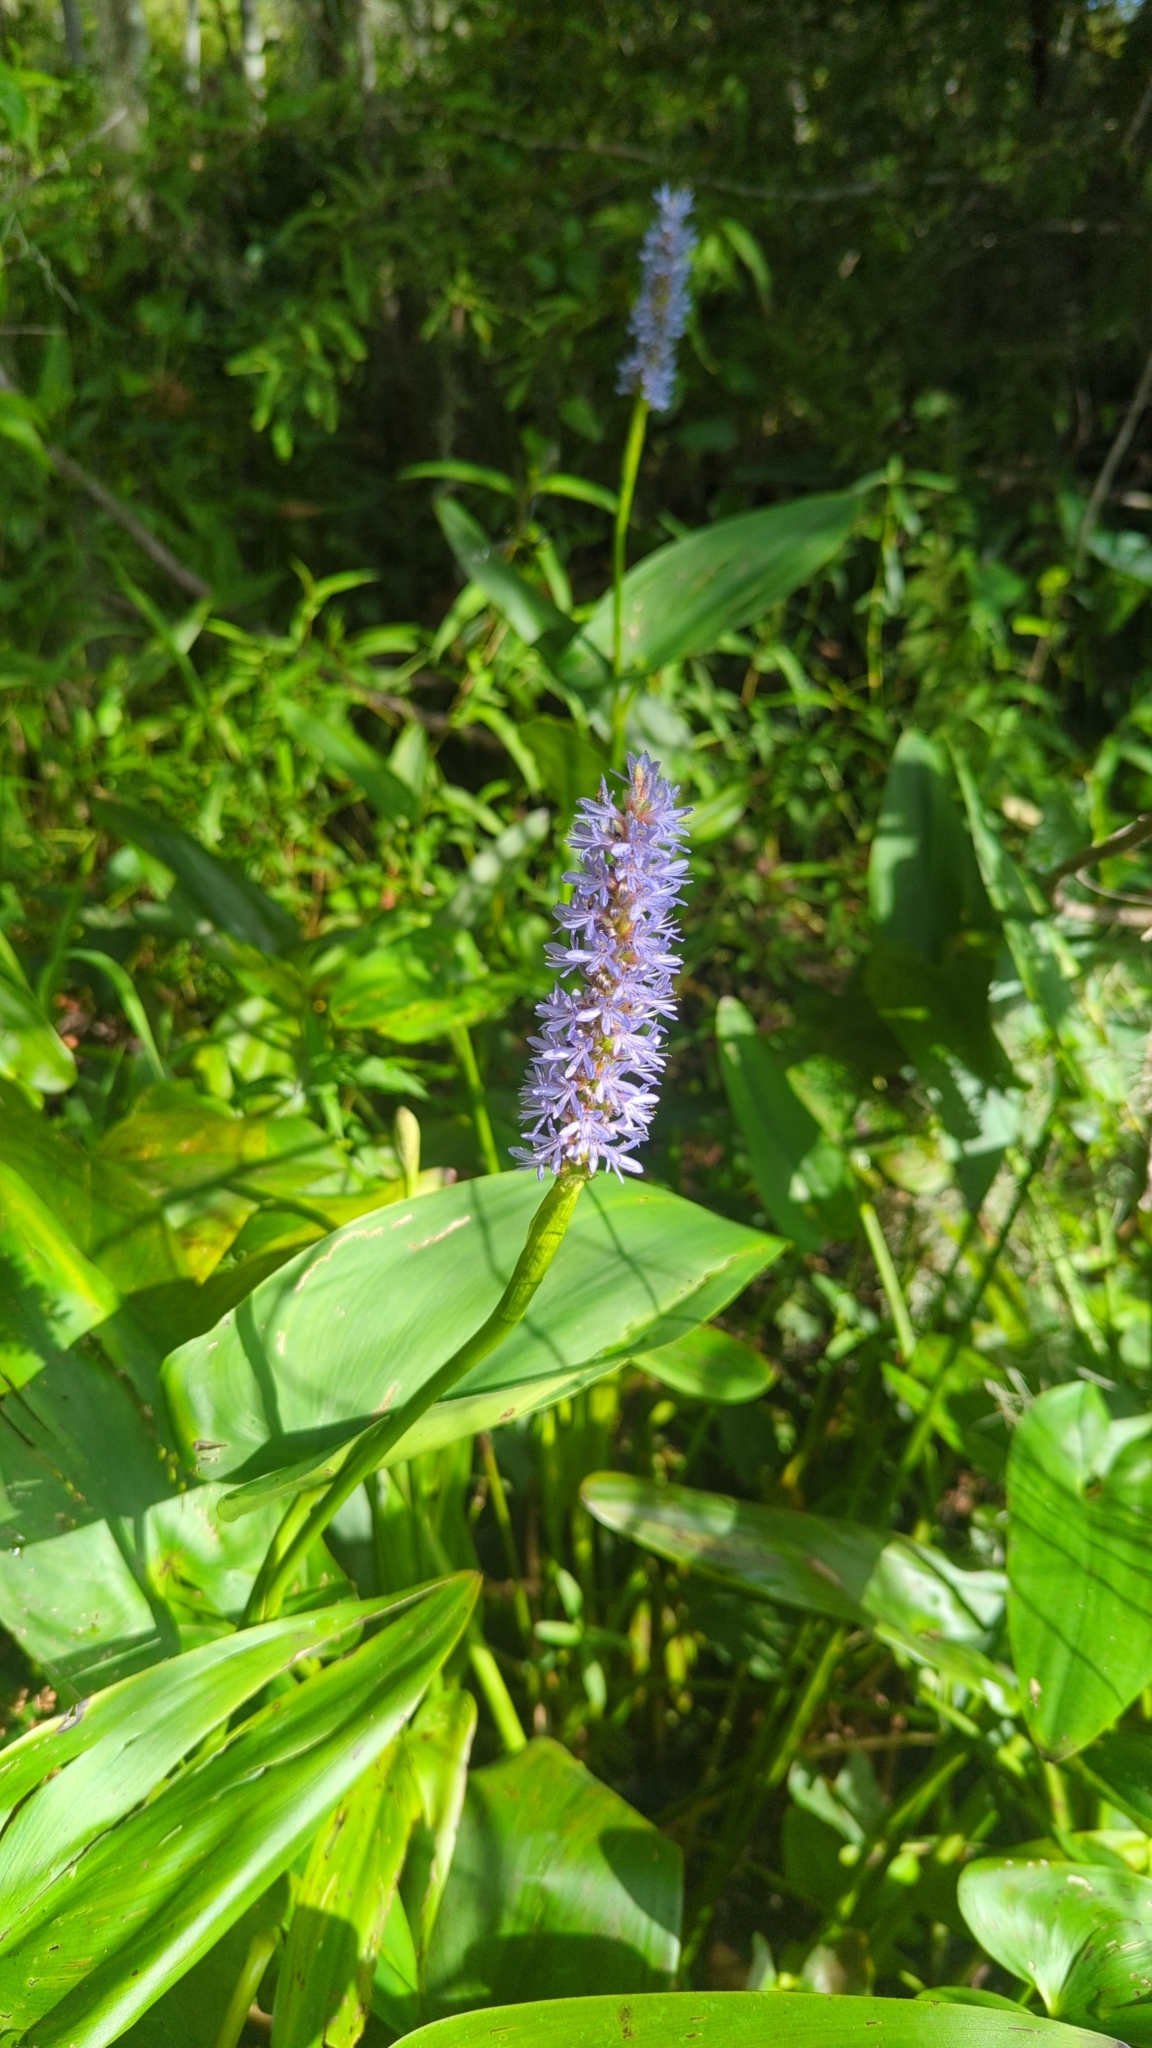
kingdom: Plantae
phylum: Tracheophyta
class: Liliopsida
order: Commelinales
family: Pontederiaceae
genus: Pontederia
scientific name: Pontederia cordata
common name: Pickerelweed
